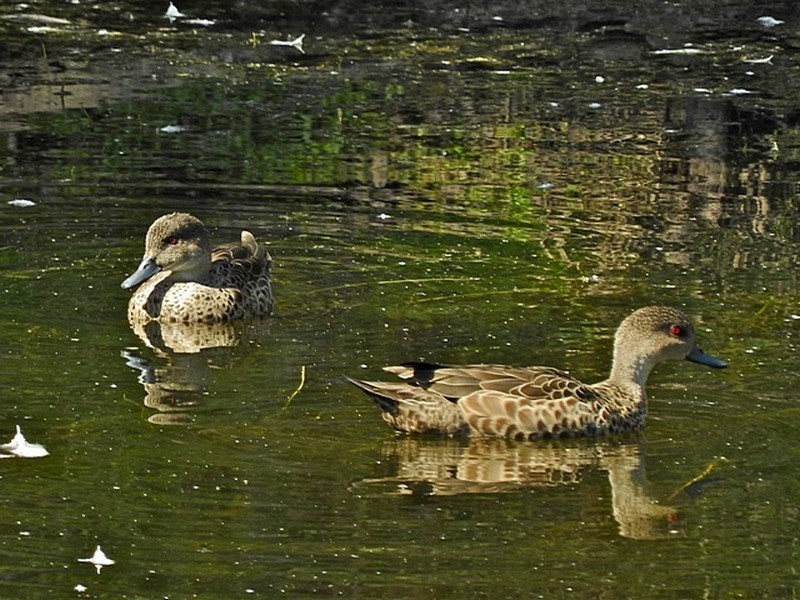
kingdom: Animalia
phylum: Chordata
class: Aves
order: Anseriformes
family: Anatidae
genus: Anas
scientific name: Anas gracilis
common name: Grey teal
